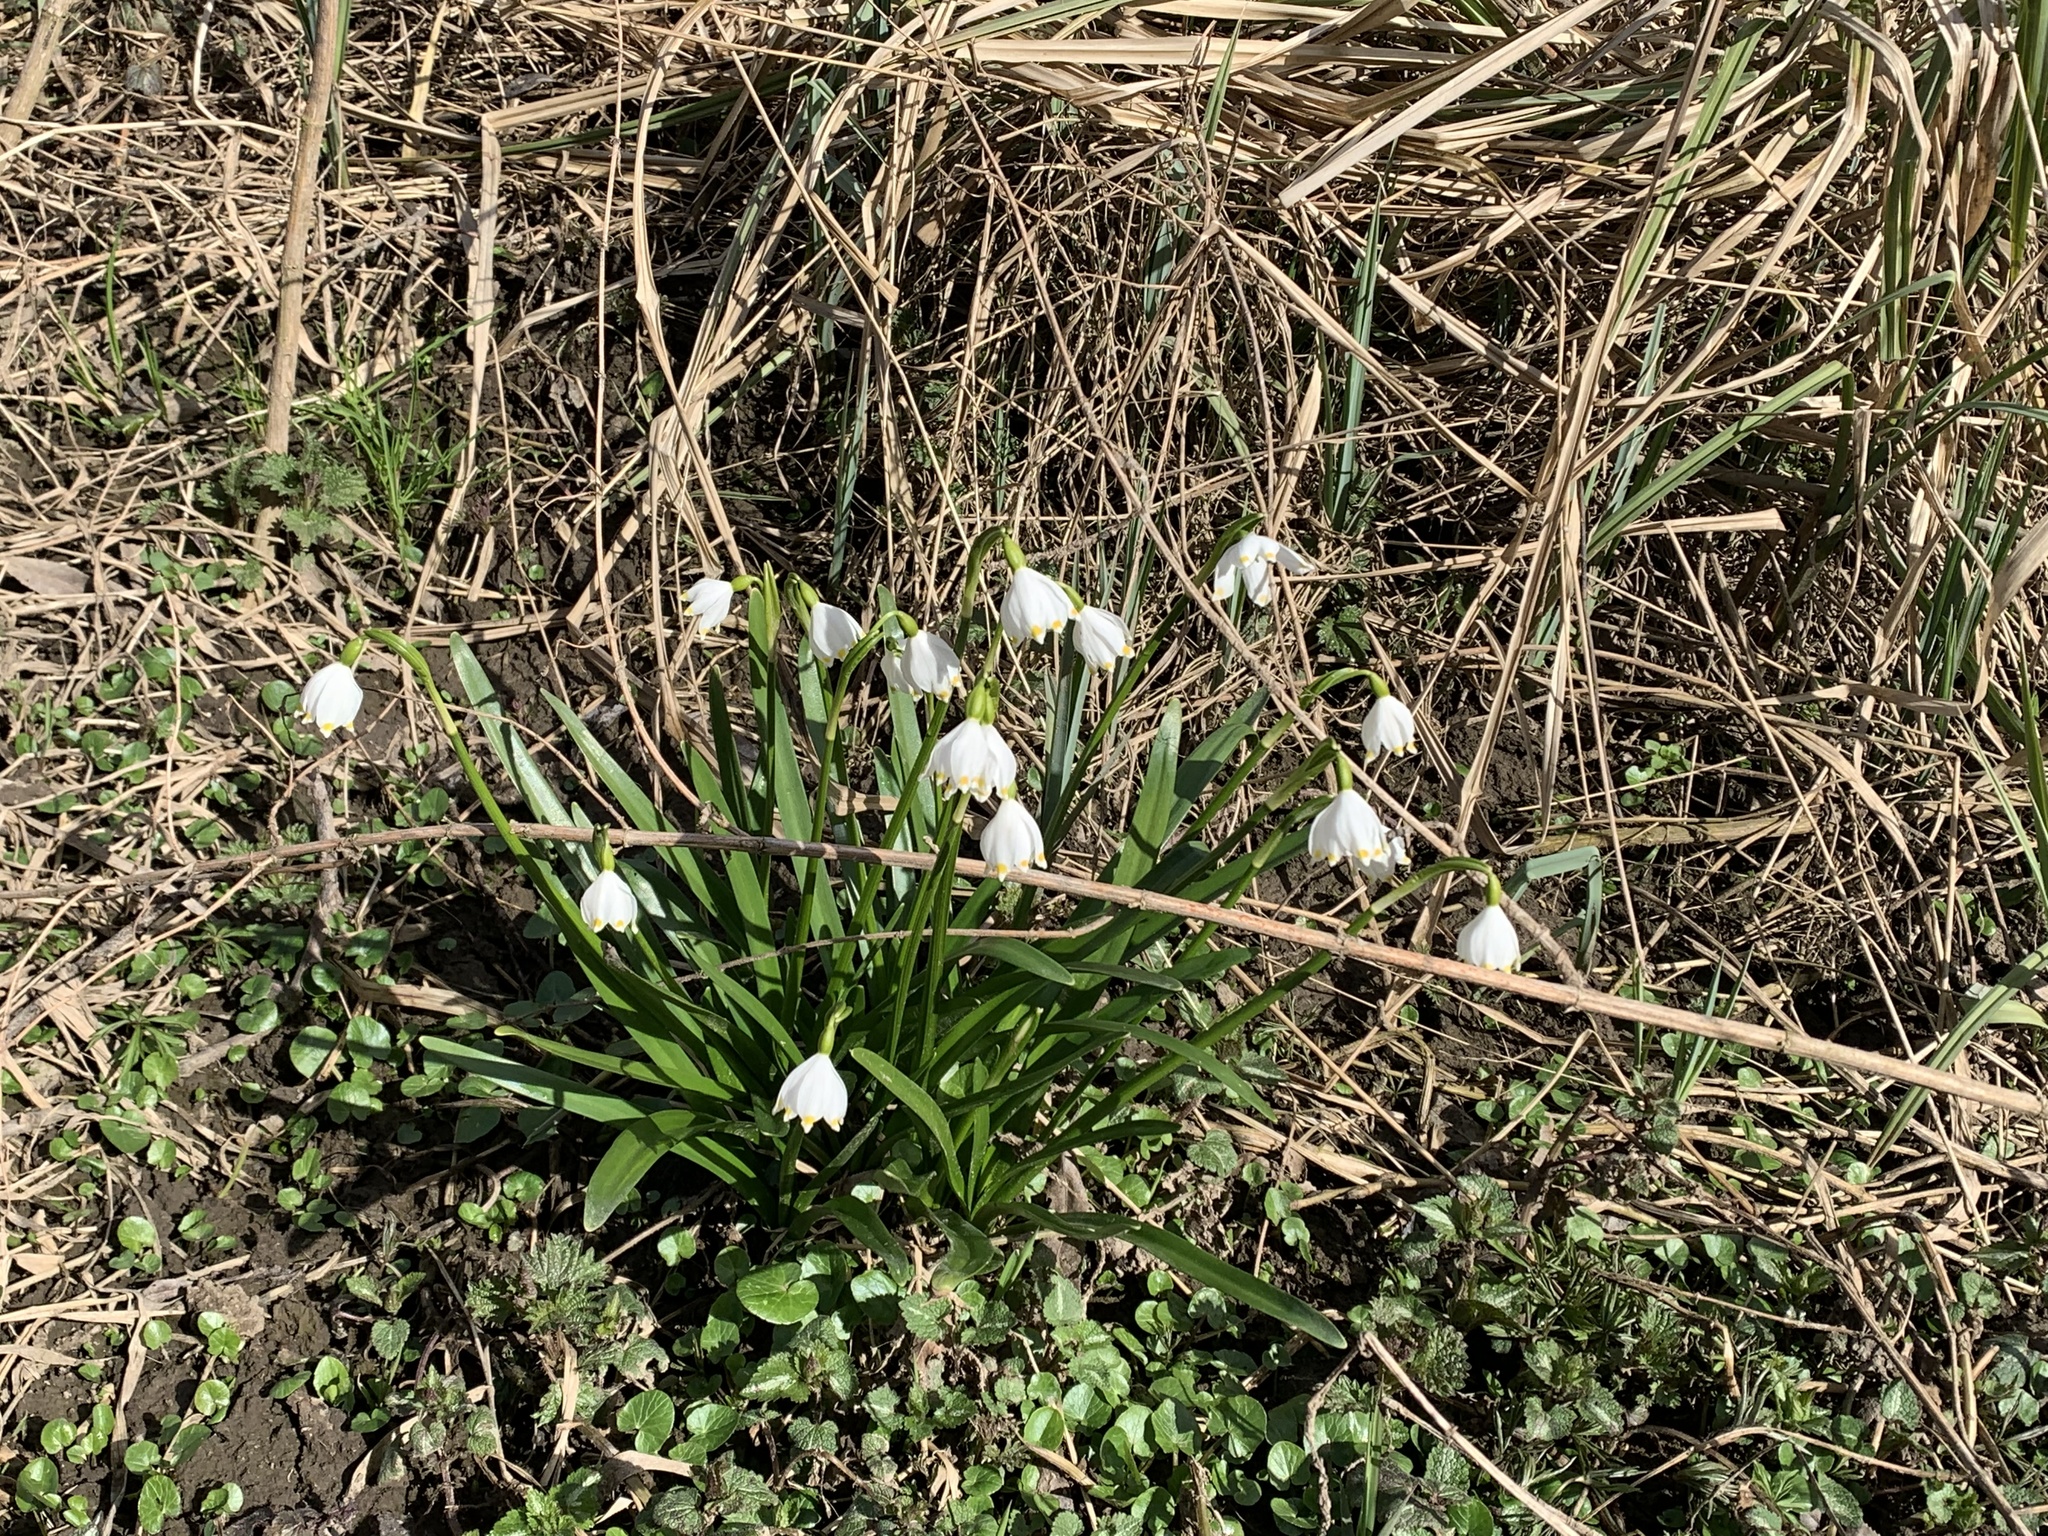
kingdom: Plantae
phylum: Tracheophyta
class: Liliopsida
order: Asparagales
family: Amaryllidaceae
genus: Leucojum
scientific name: Leucojum vernum
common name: Spring snowflake
